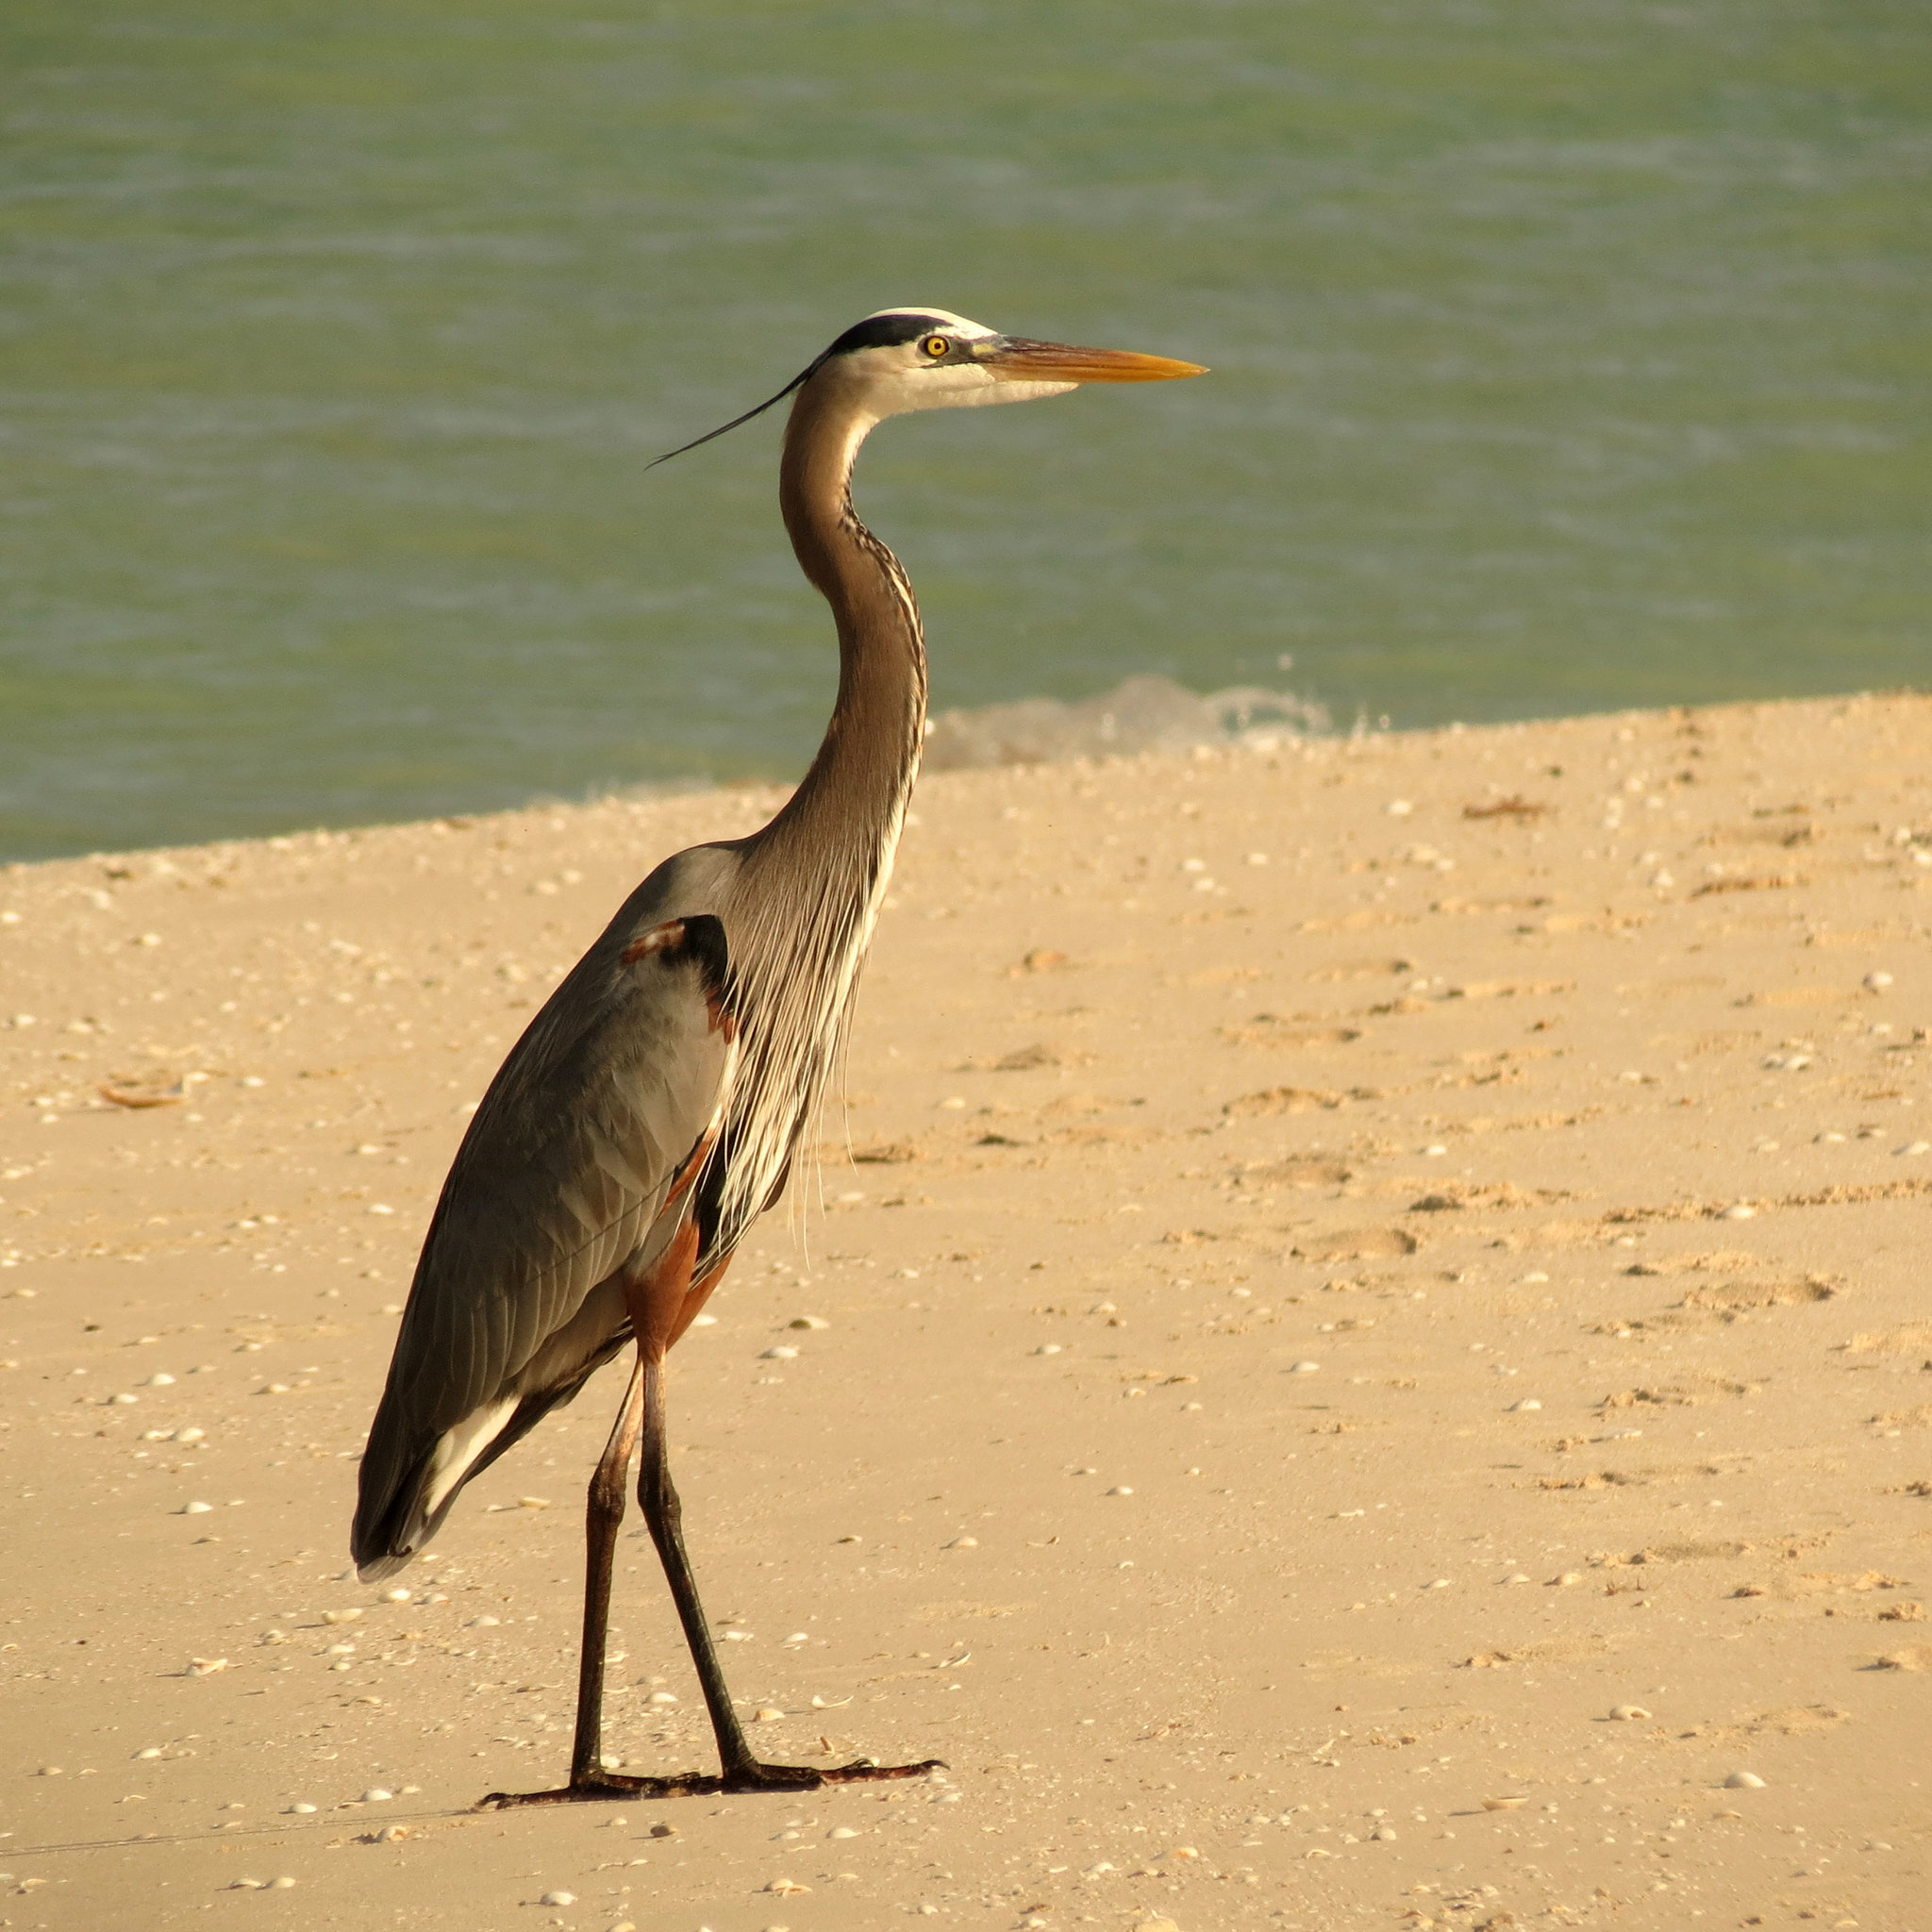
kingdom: Animalia
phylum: Chordata
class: Aves
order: Pelecaniformes
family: Ardeidae
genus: Ardea
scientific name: Ardea herodias
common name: Great blue heron
